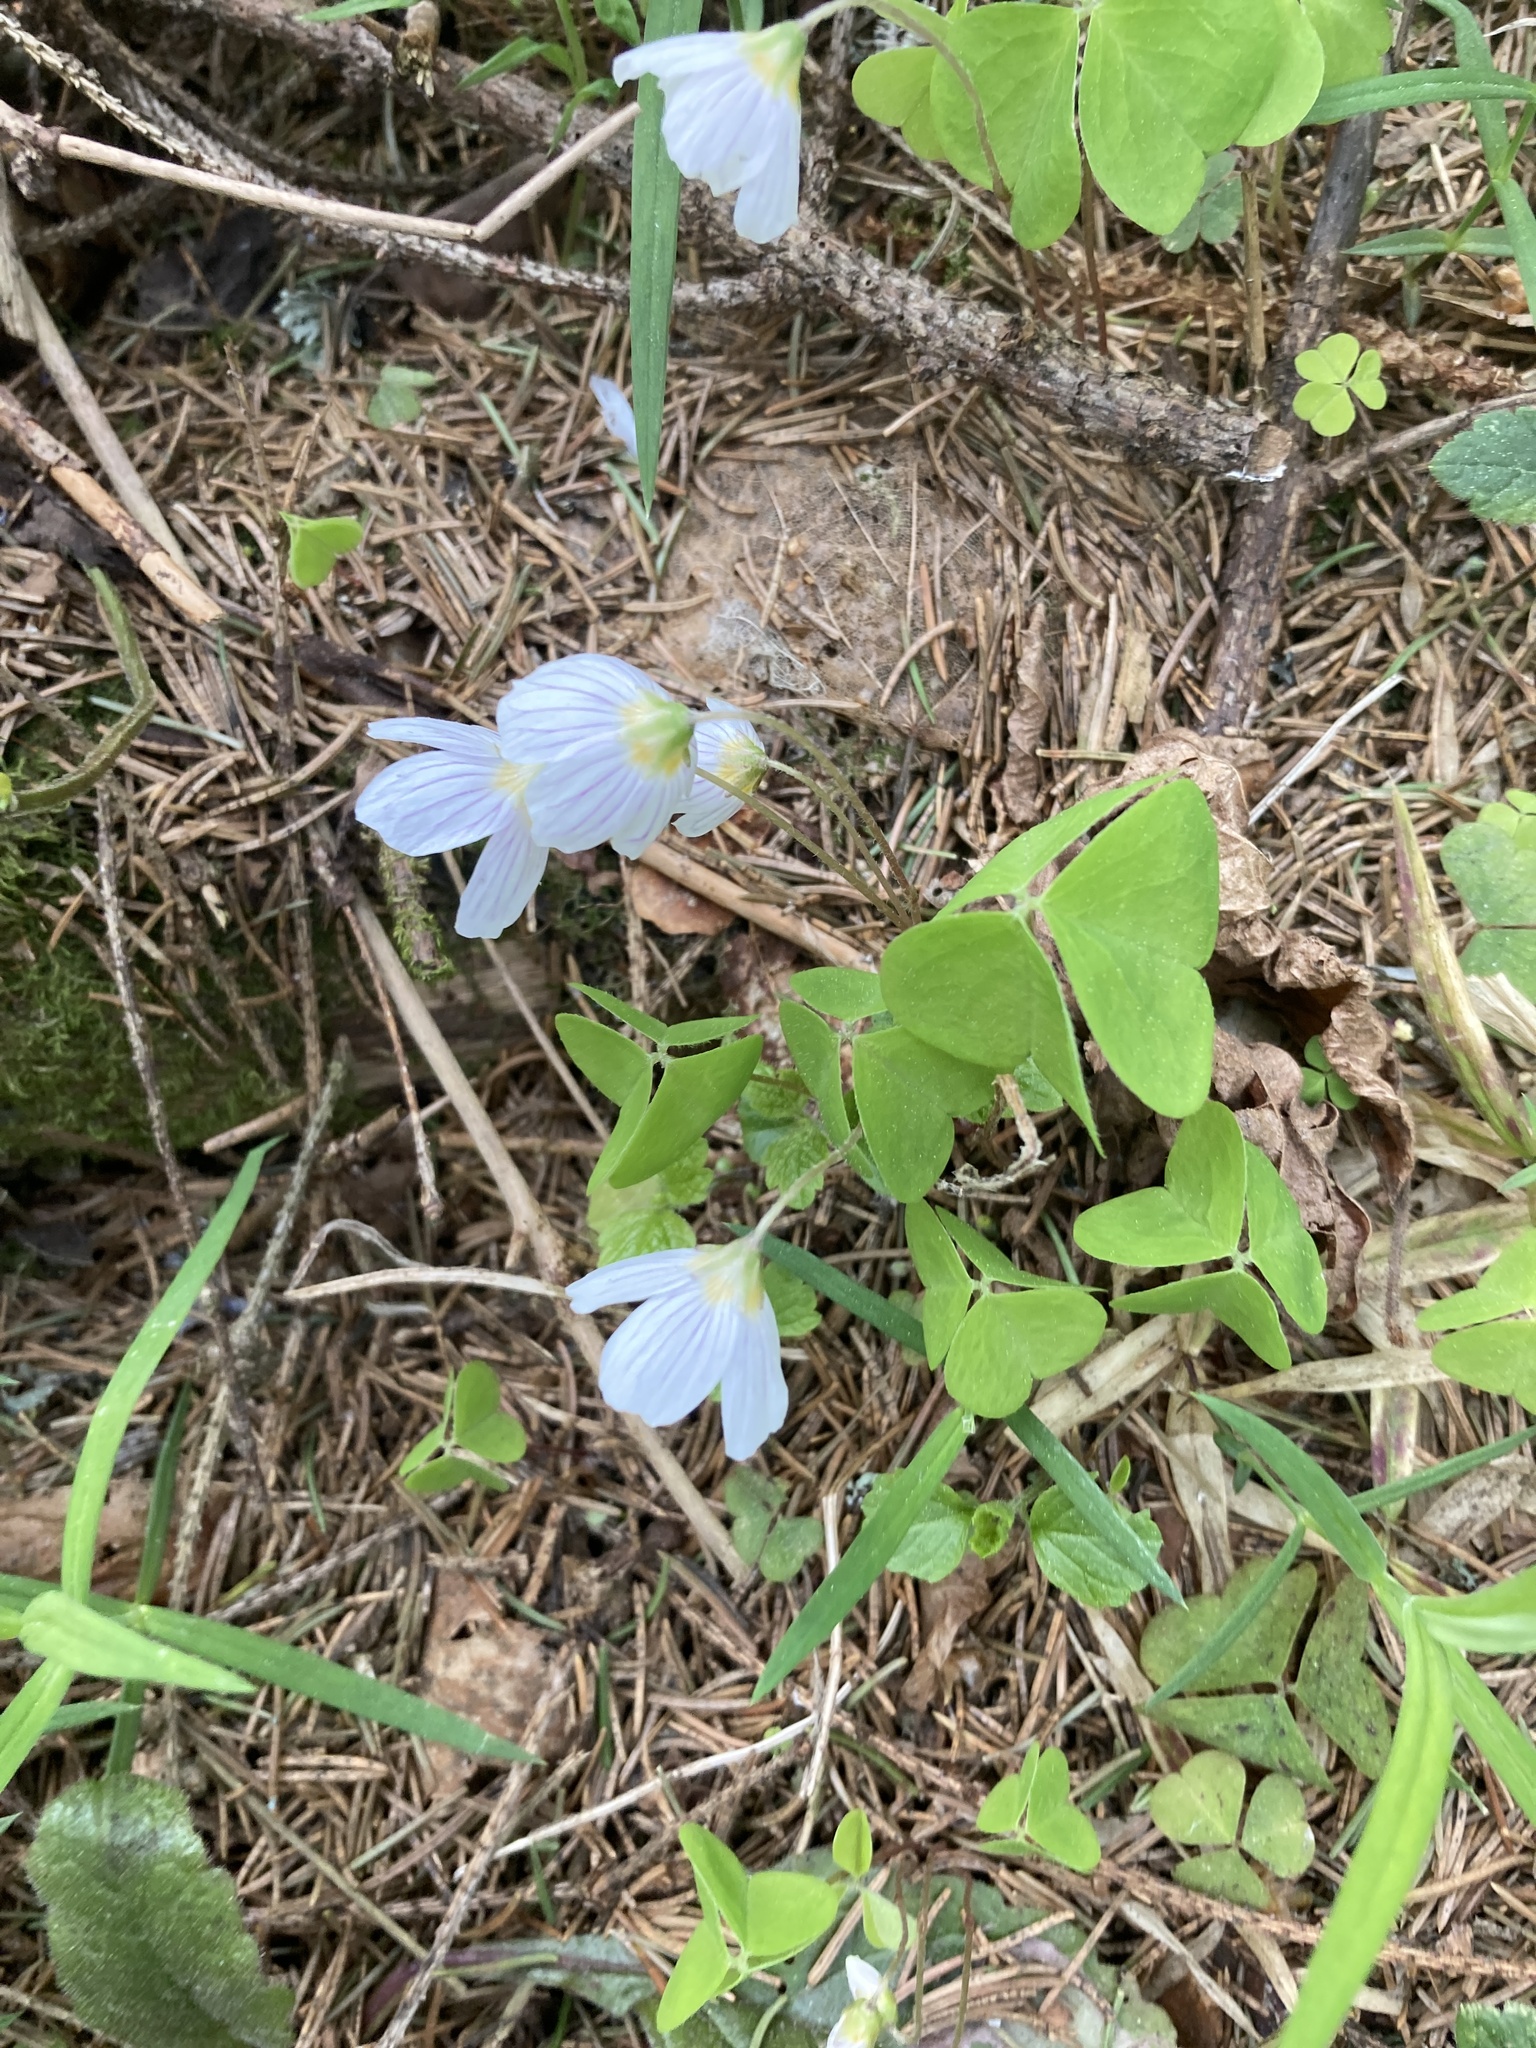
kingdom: Plantae
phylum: Tracheophyta
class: Magnoliopsida
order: Oxalidales
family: Oxalidaceae
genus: Oxalis
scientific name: Oxalis acetosella
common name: Wood-sorrel
